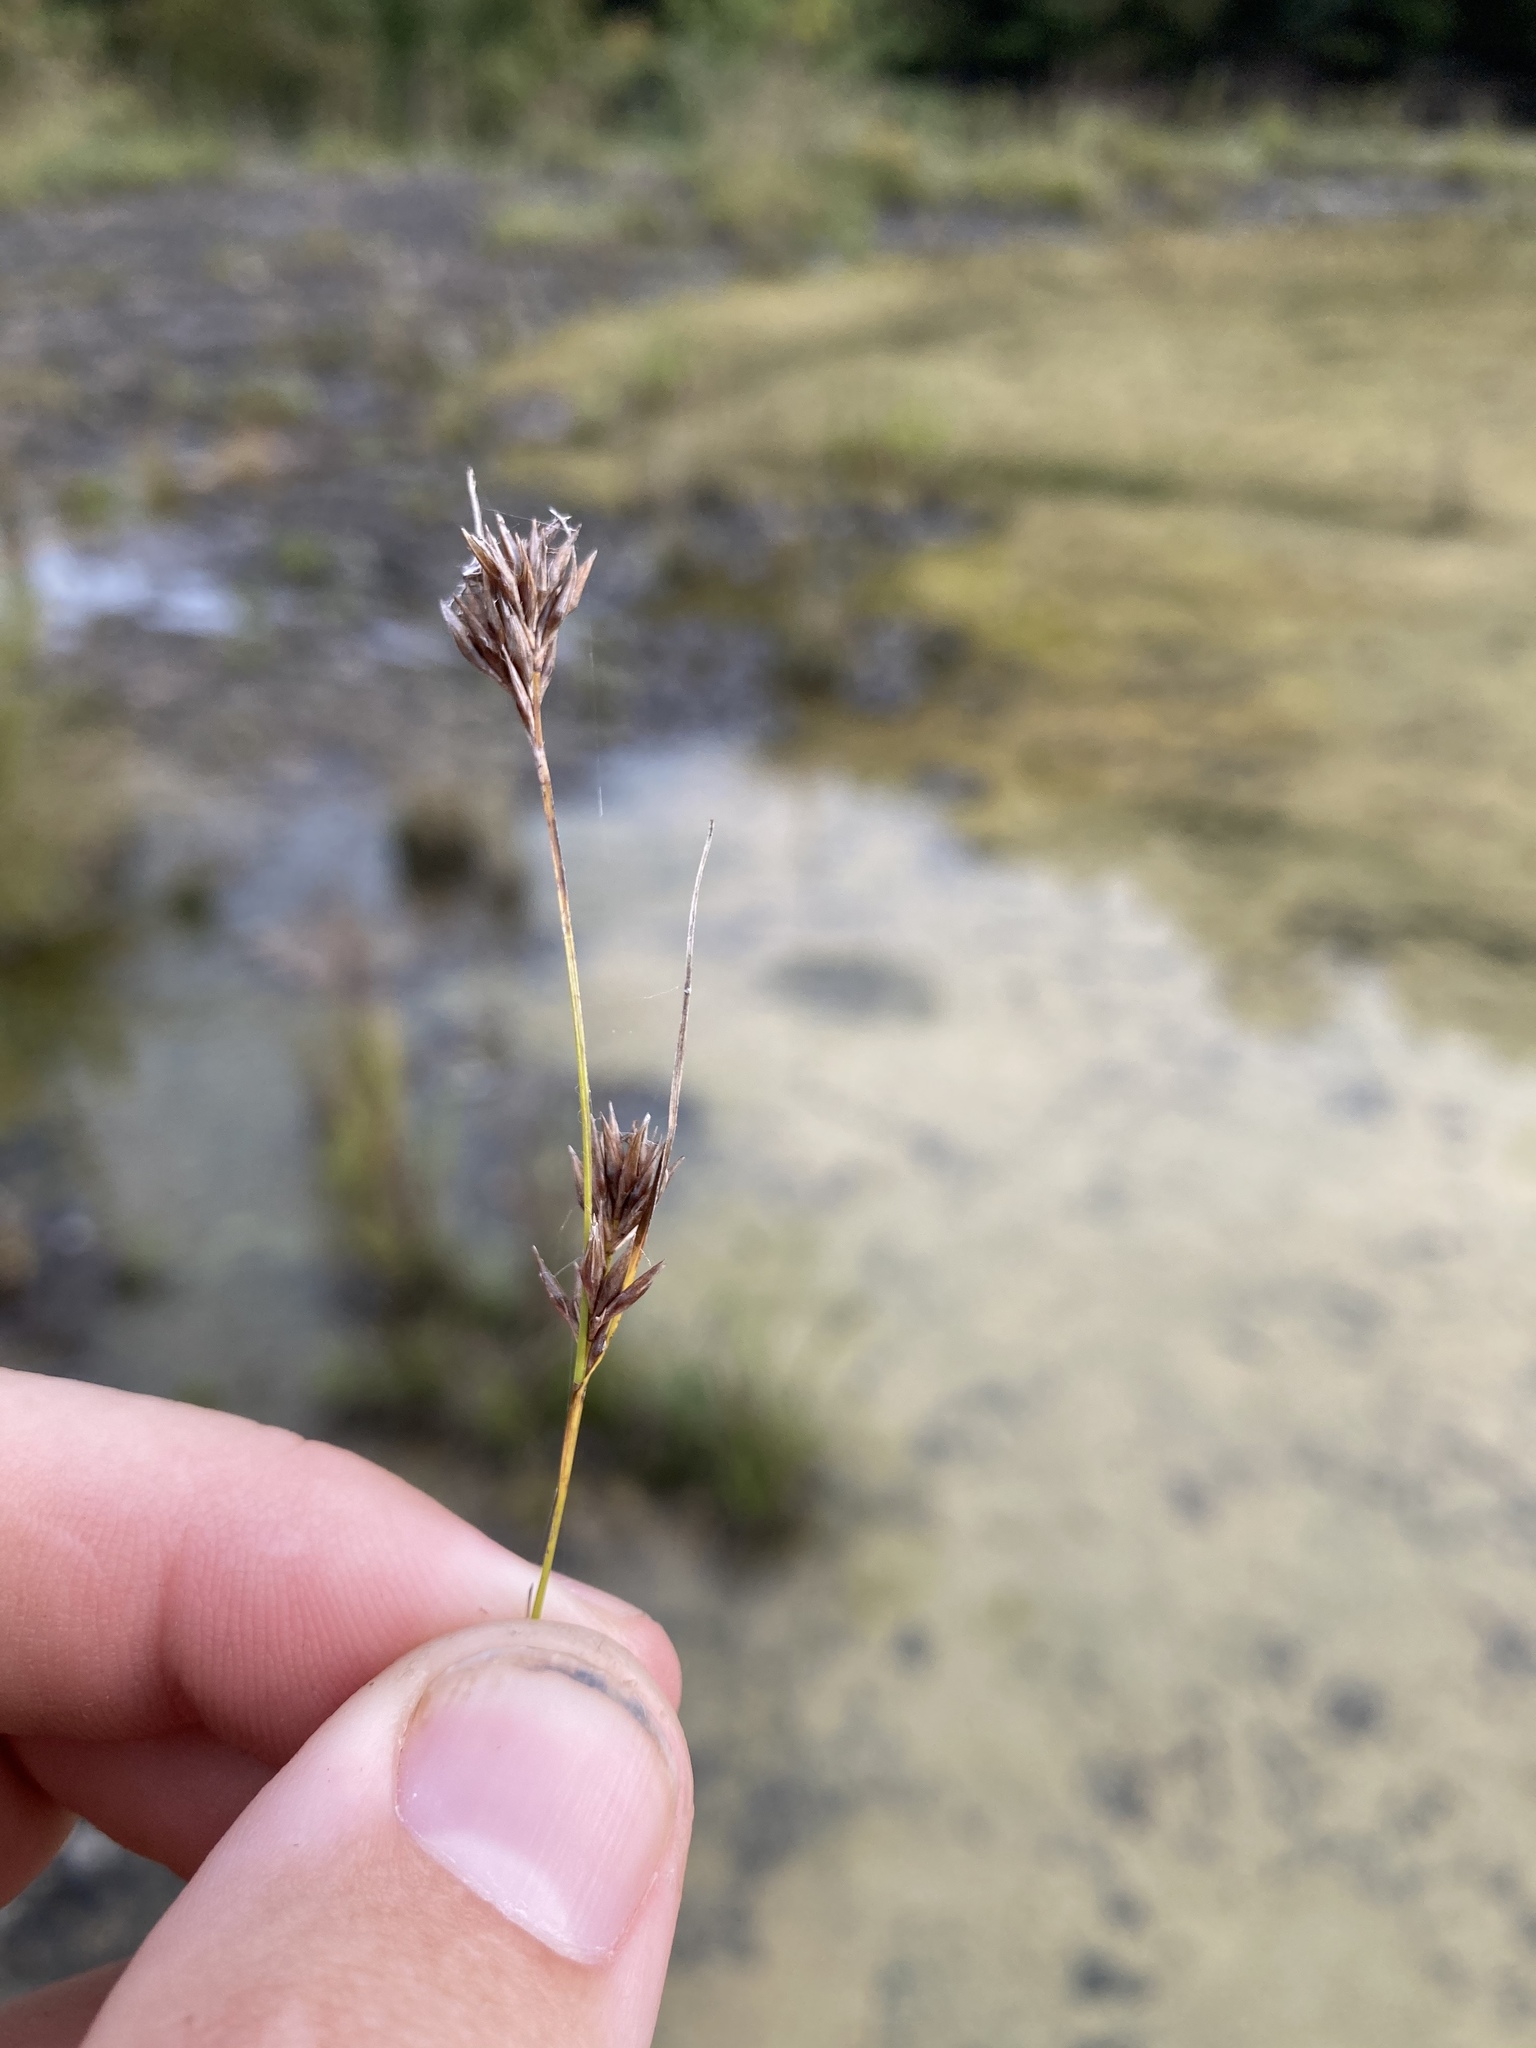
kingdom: Plantae
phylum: Tracheophyta
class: Liliopsida
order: Poales
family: Cyperaceae
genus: Rhynchospora
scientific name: Rhynchospora stiletto
